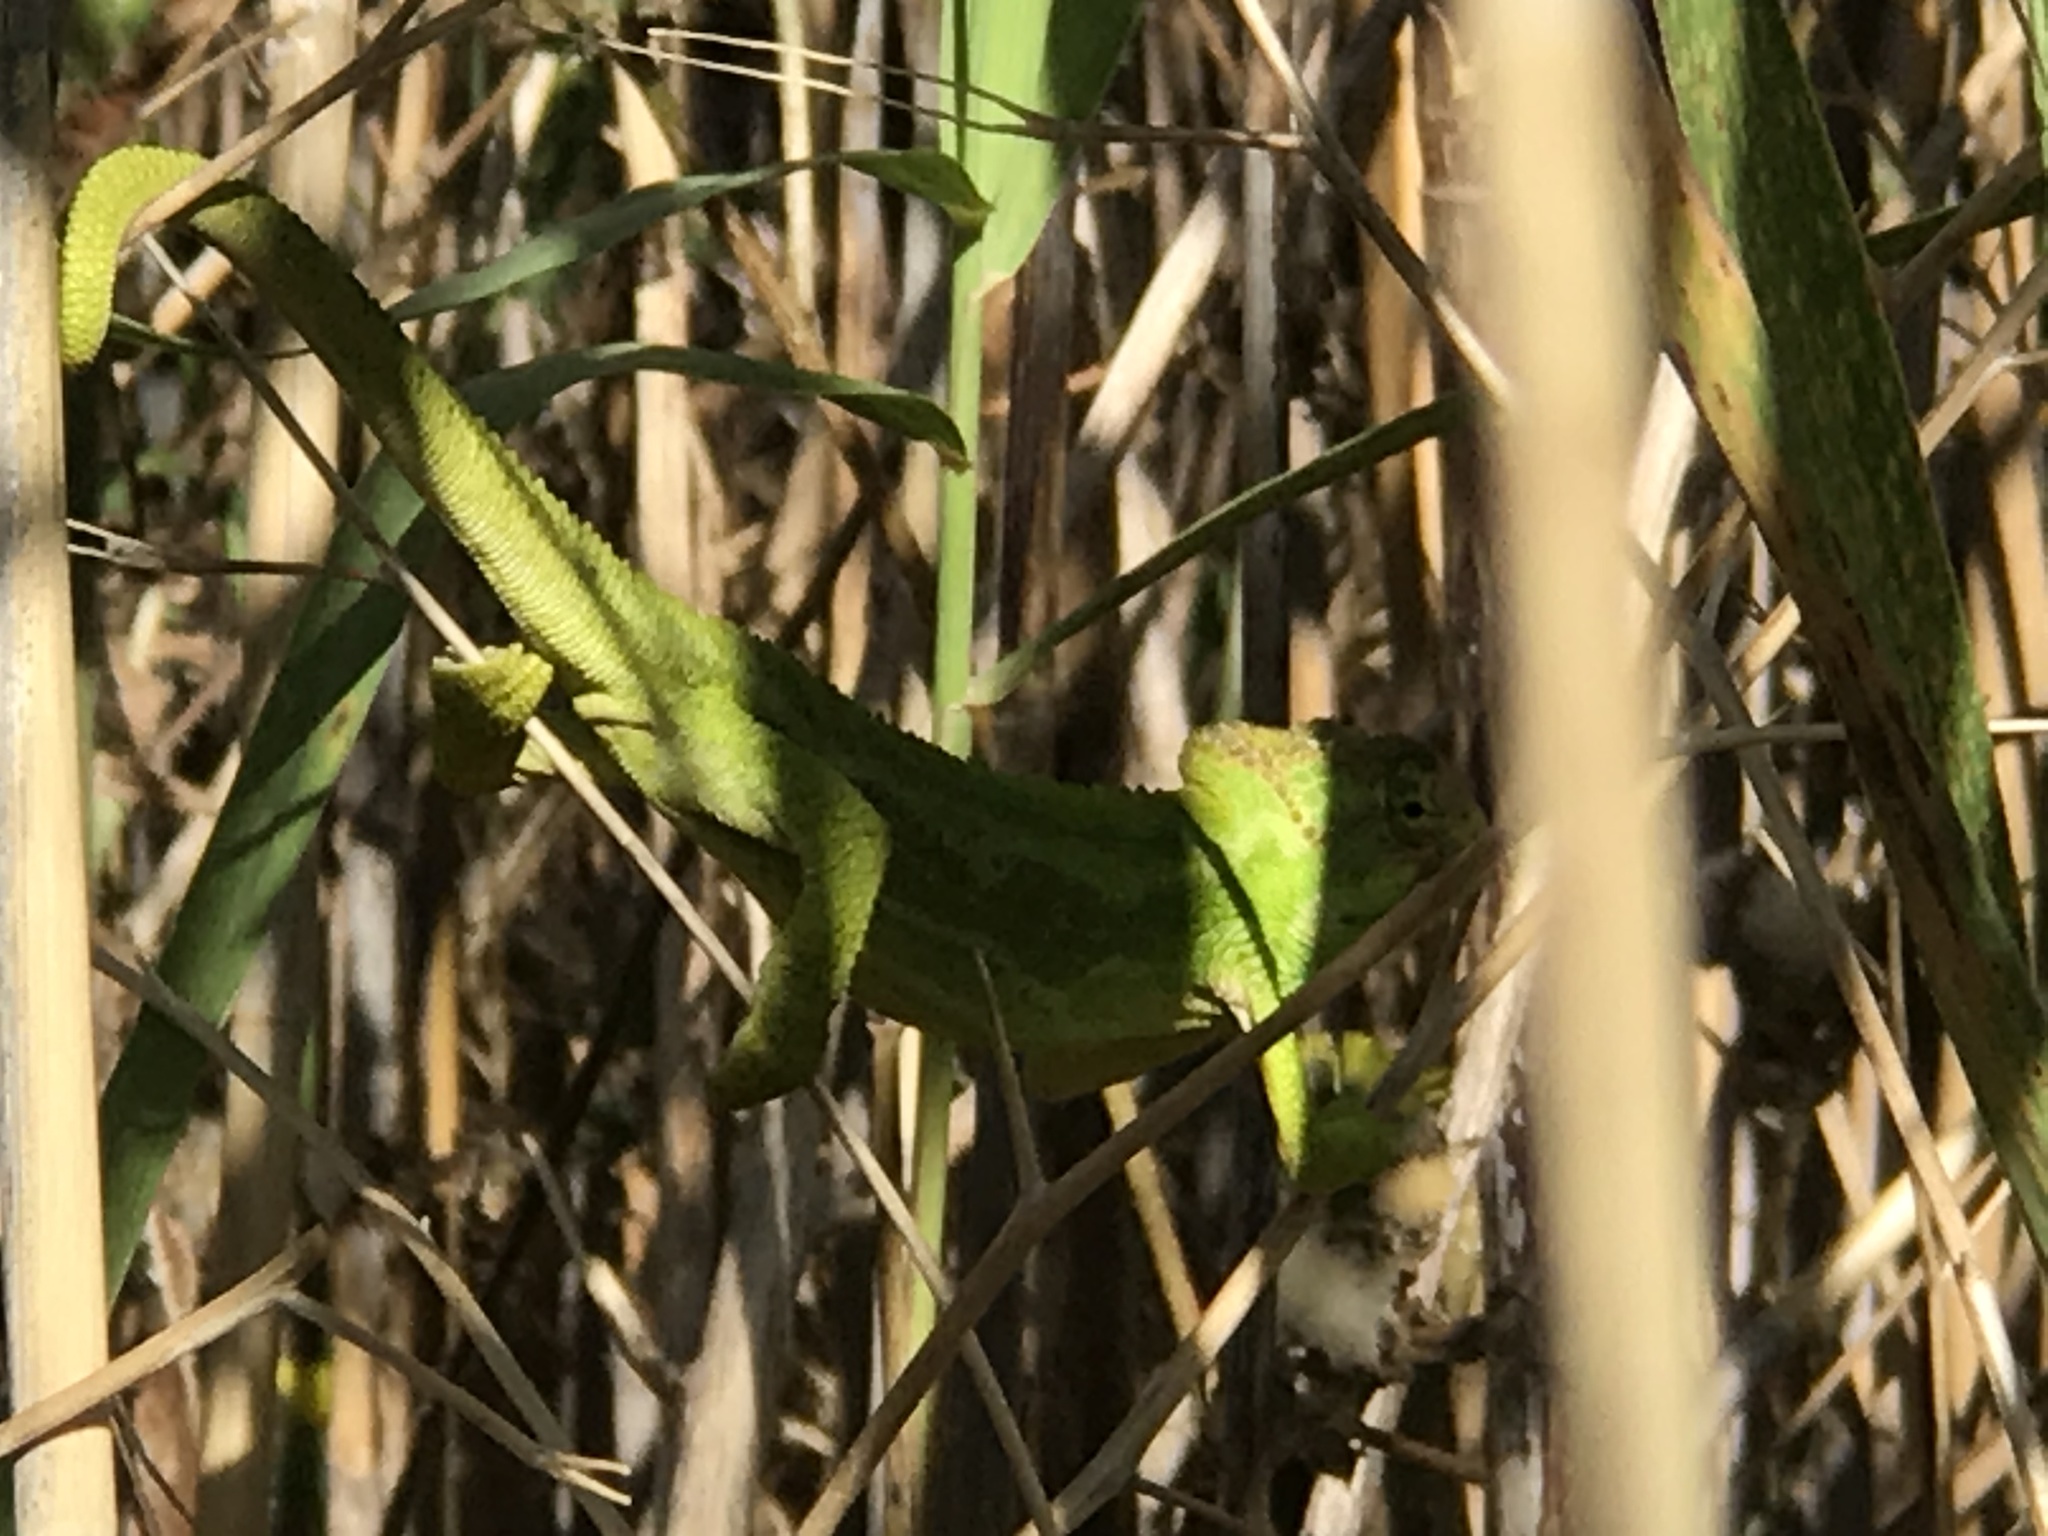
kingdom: Animalia
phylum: Chordata
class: Squamata
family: Chamaeleonidae
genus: Bradypodion
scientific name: Bradypodion pumilum
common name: Cape dwarf chameleon
